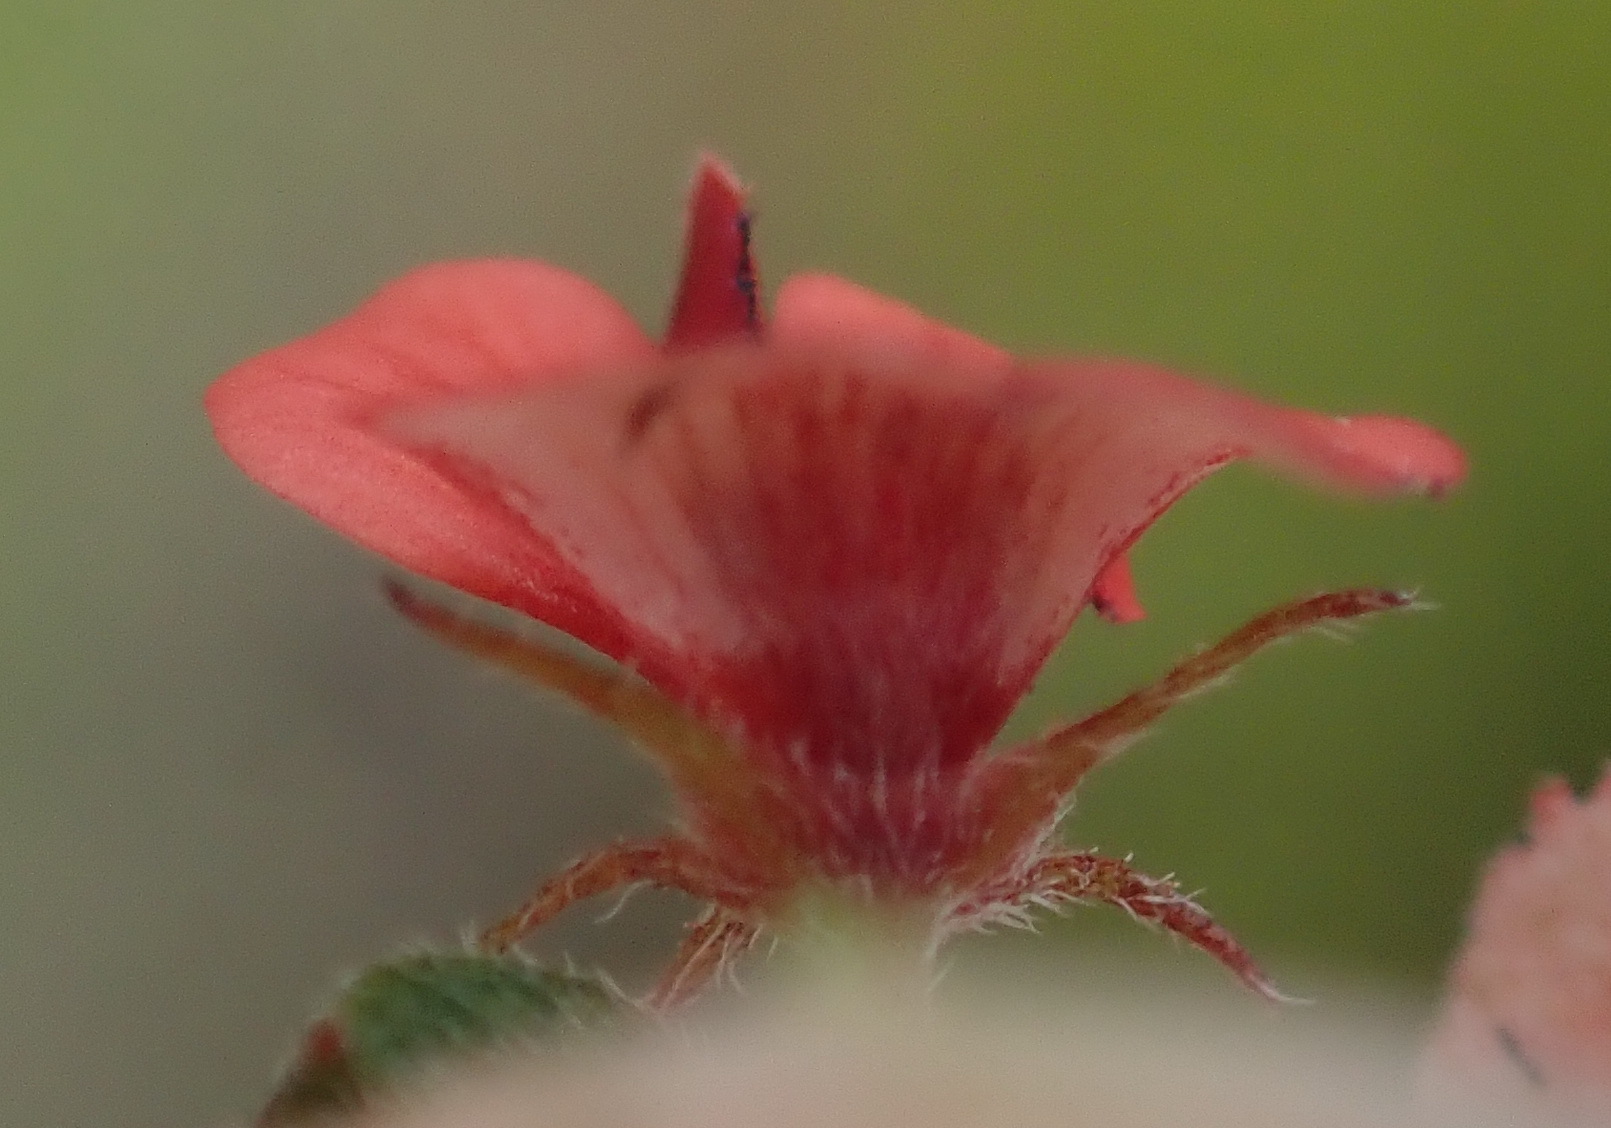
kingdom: Plantae
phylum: Tracheophyta
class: Magnoliopsida
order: Fabales
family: Fabaceae
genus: Indigofera
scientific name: Indigofera priorii
